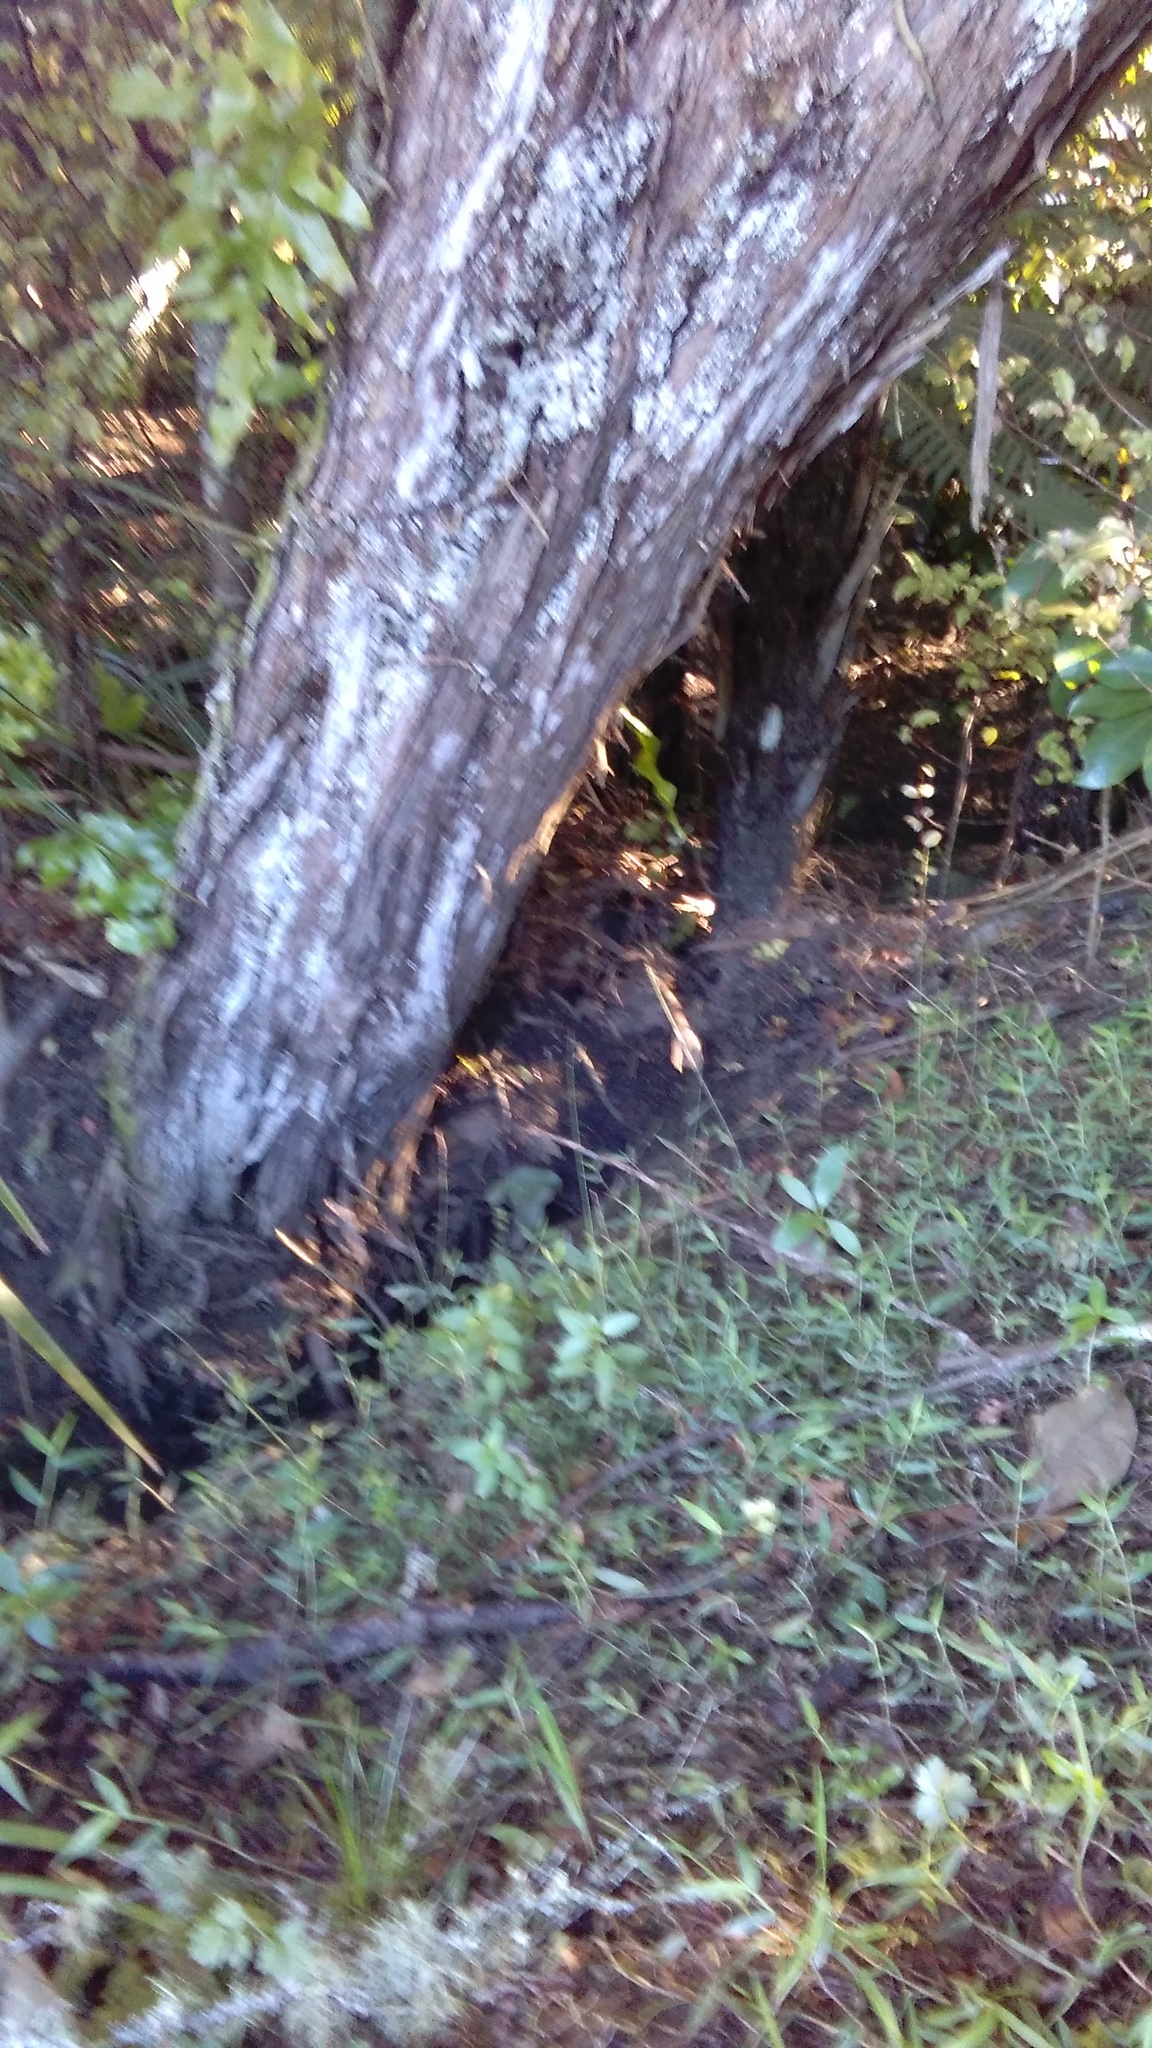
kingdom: Plantae
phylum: Tracheophyta
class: Liliopsida
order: Poales
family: Poaceae
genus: Oplismenus
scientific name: Oplismenus hirtellus
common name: Basketgrass
